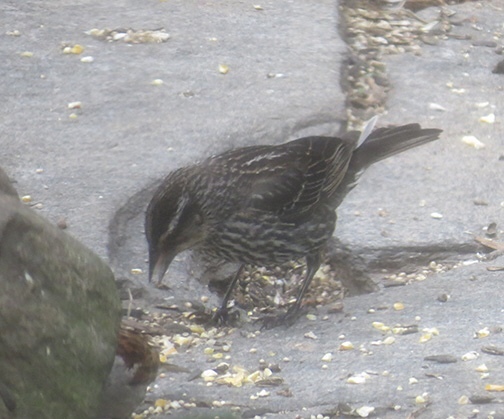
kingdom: Animalia
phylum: Chordata
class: Aves
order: Passeriformes
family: Icteridae
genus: Agelaius
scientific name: Agelaius phoeniceus
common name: Red-winged blackbird
